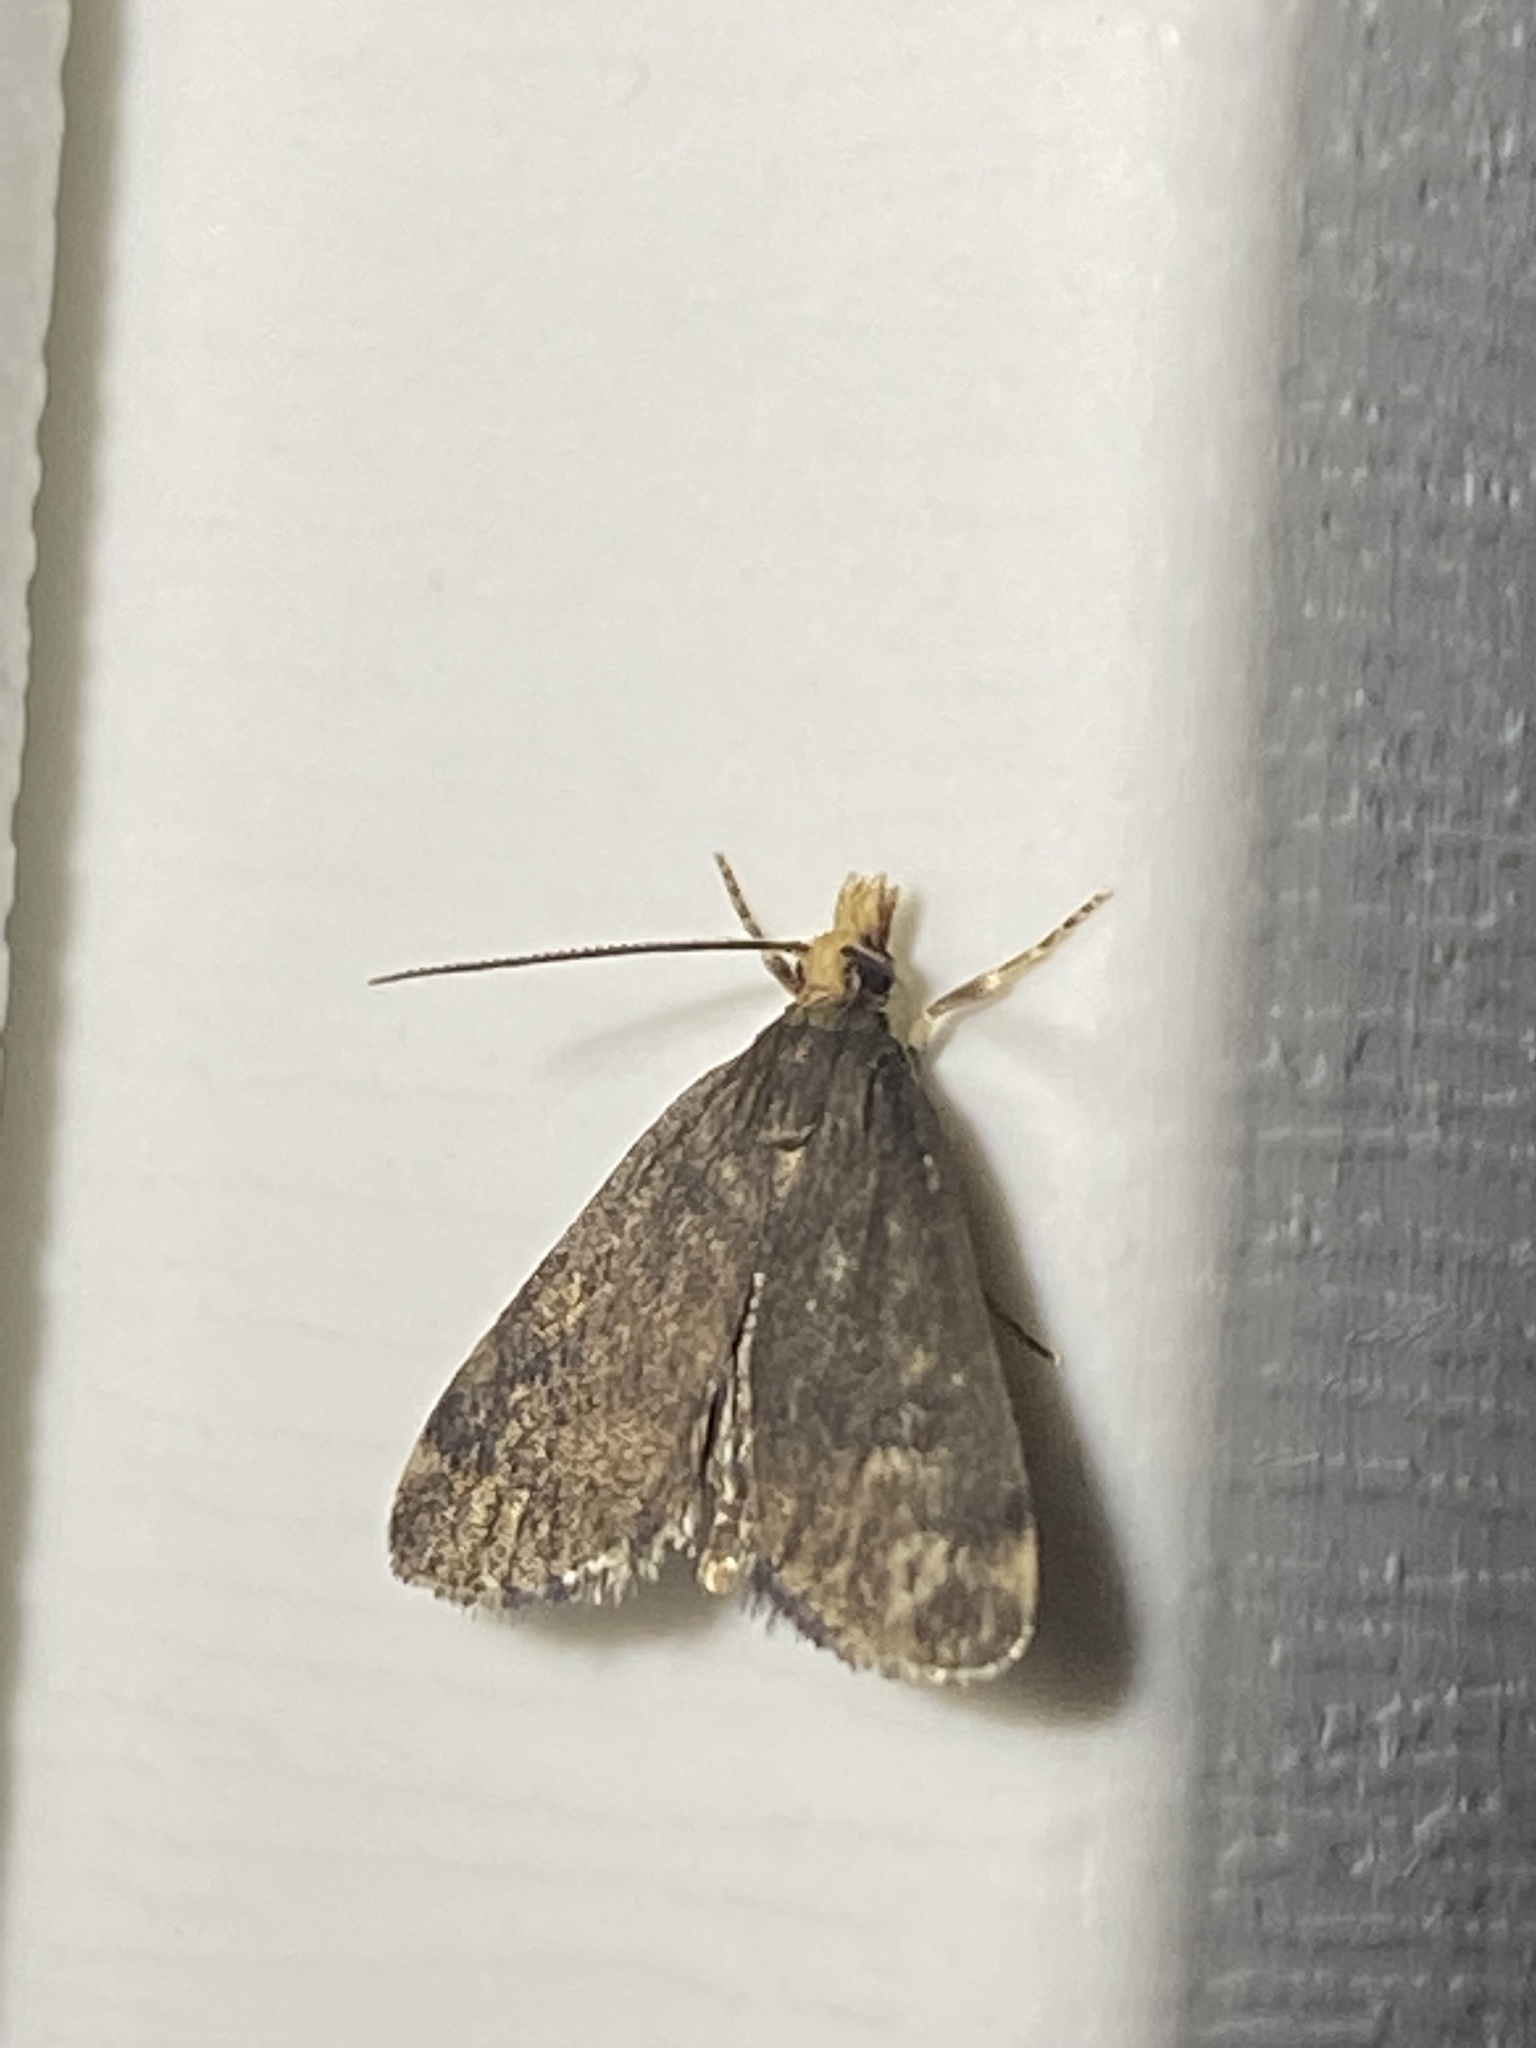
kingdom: Animalia
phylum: Arthropoda
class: Insecta
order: Lepidoptera
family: Crambidae
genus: Pyrausta
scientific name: Pyrausta merrickalis
